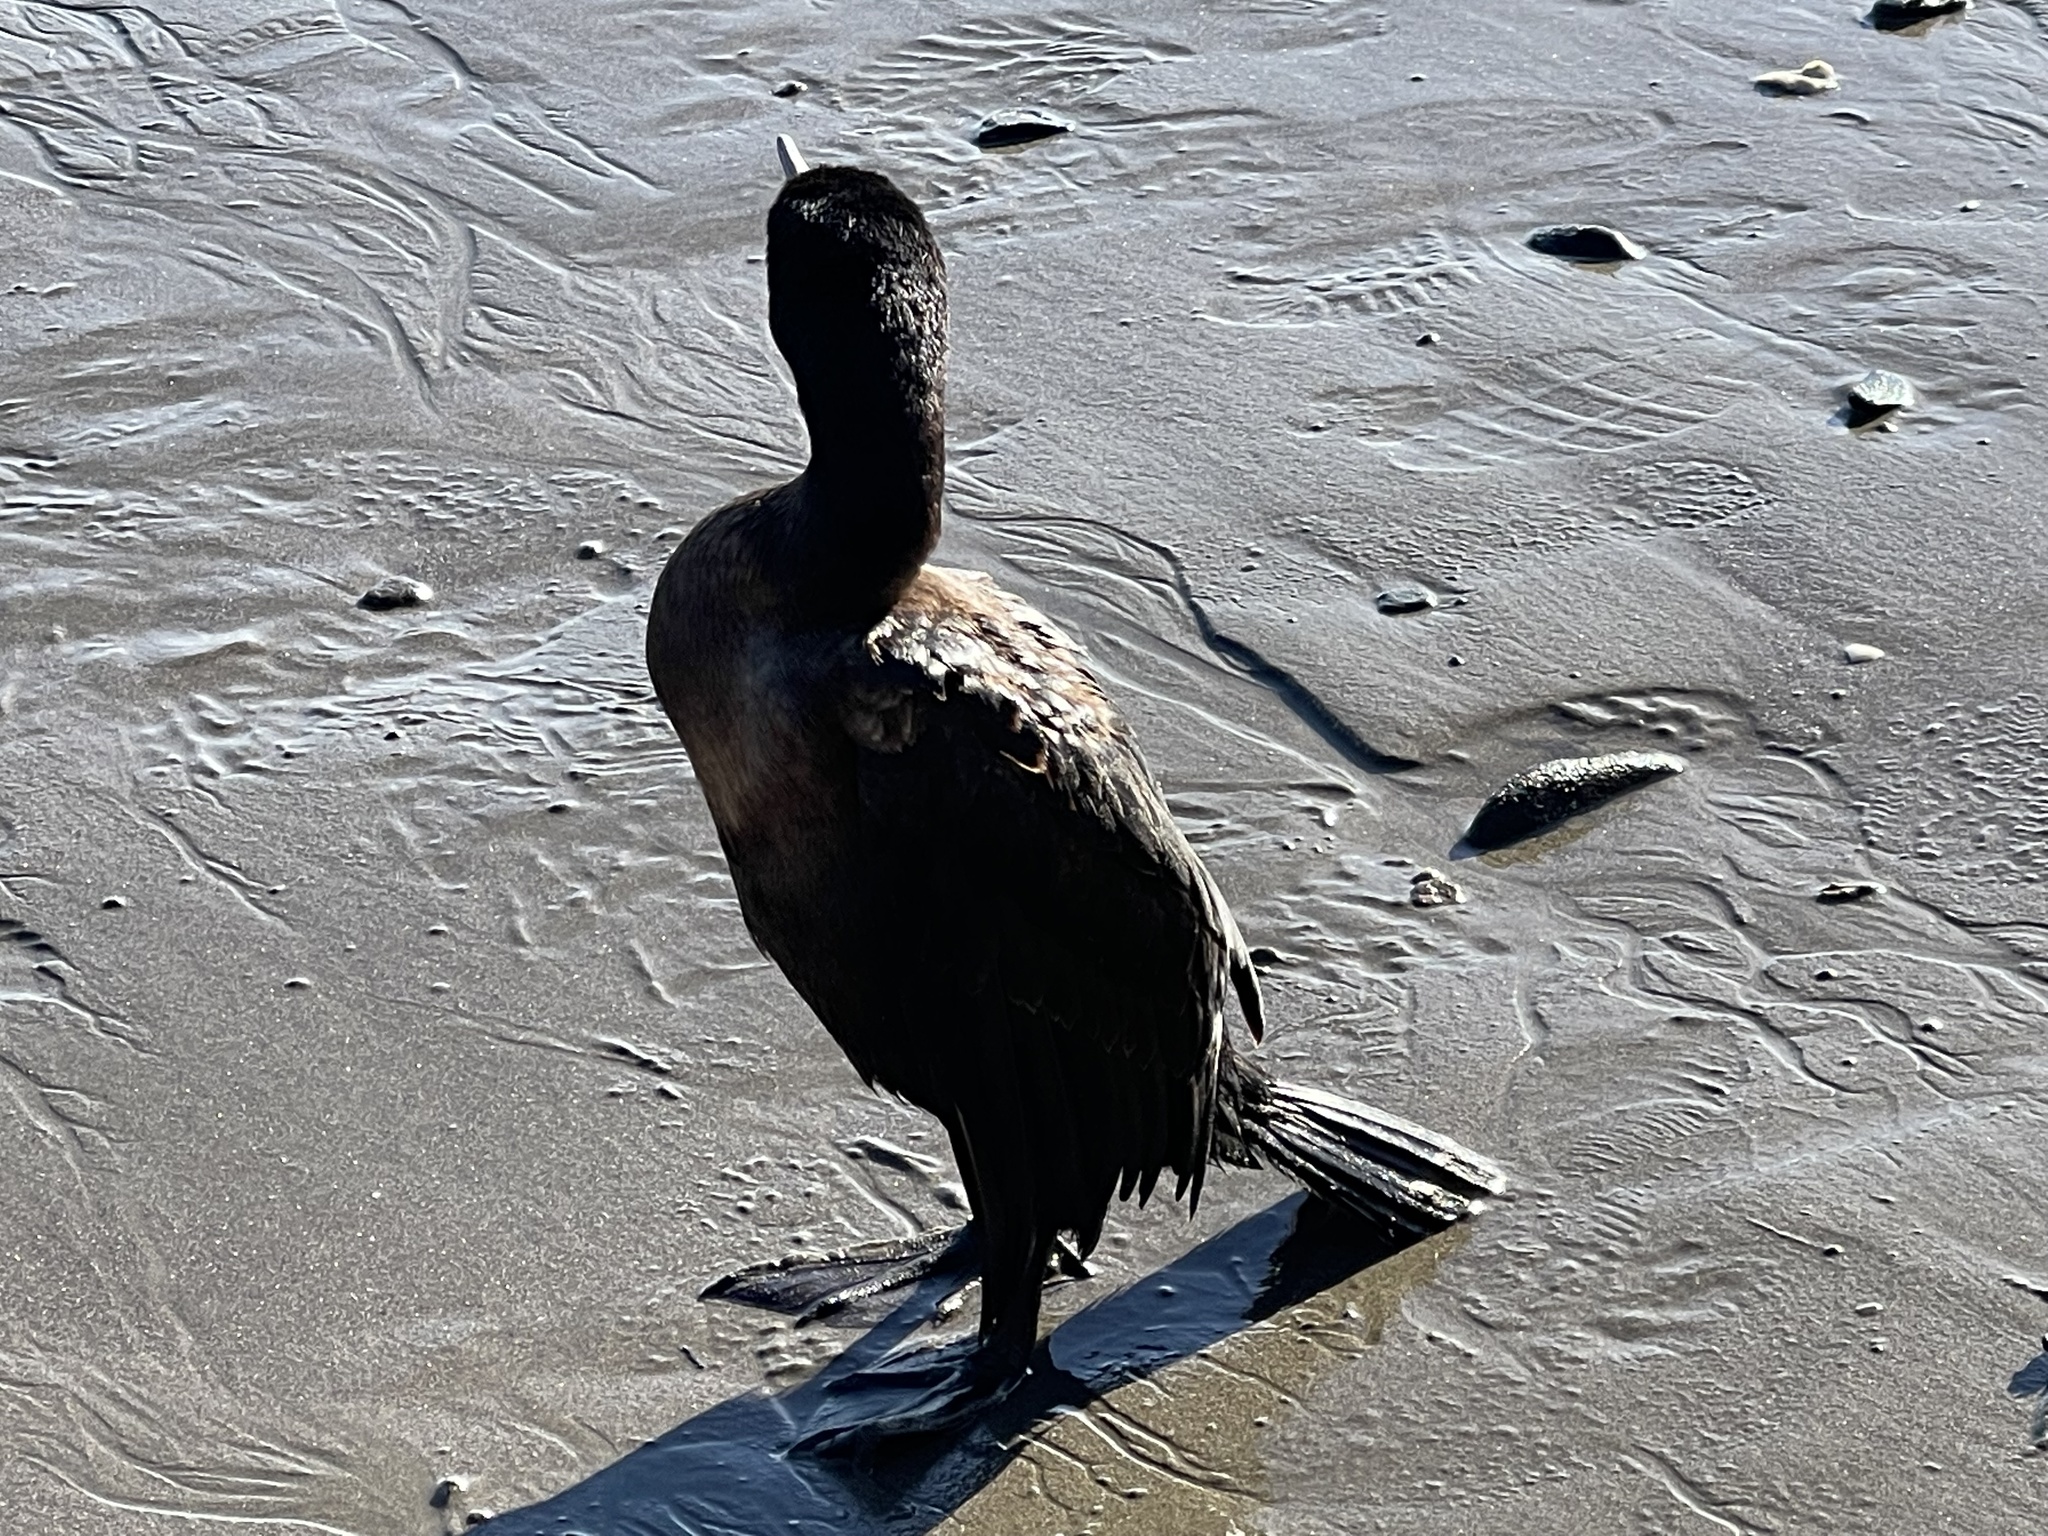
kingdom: Animalia
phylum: Chordata
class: Aves
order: Suliformes
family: Phalacrocoracidae
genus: Urile
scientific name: Urile penicillatus
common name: Brandt's cormorant
